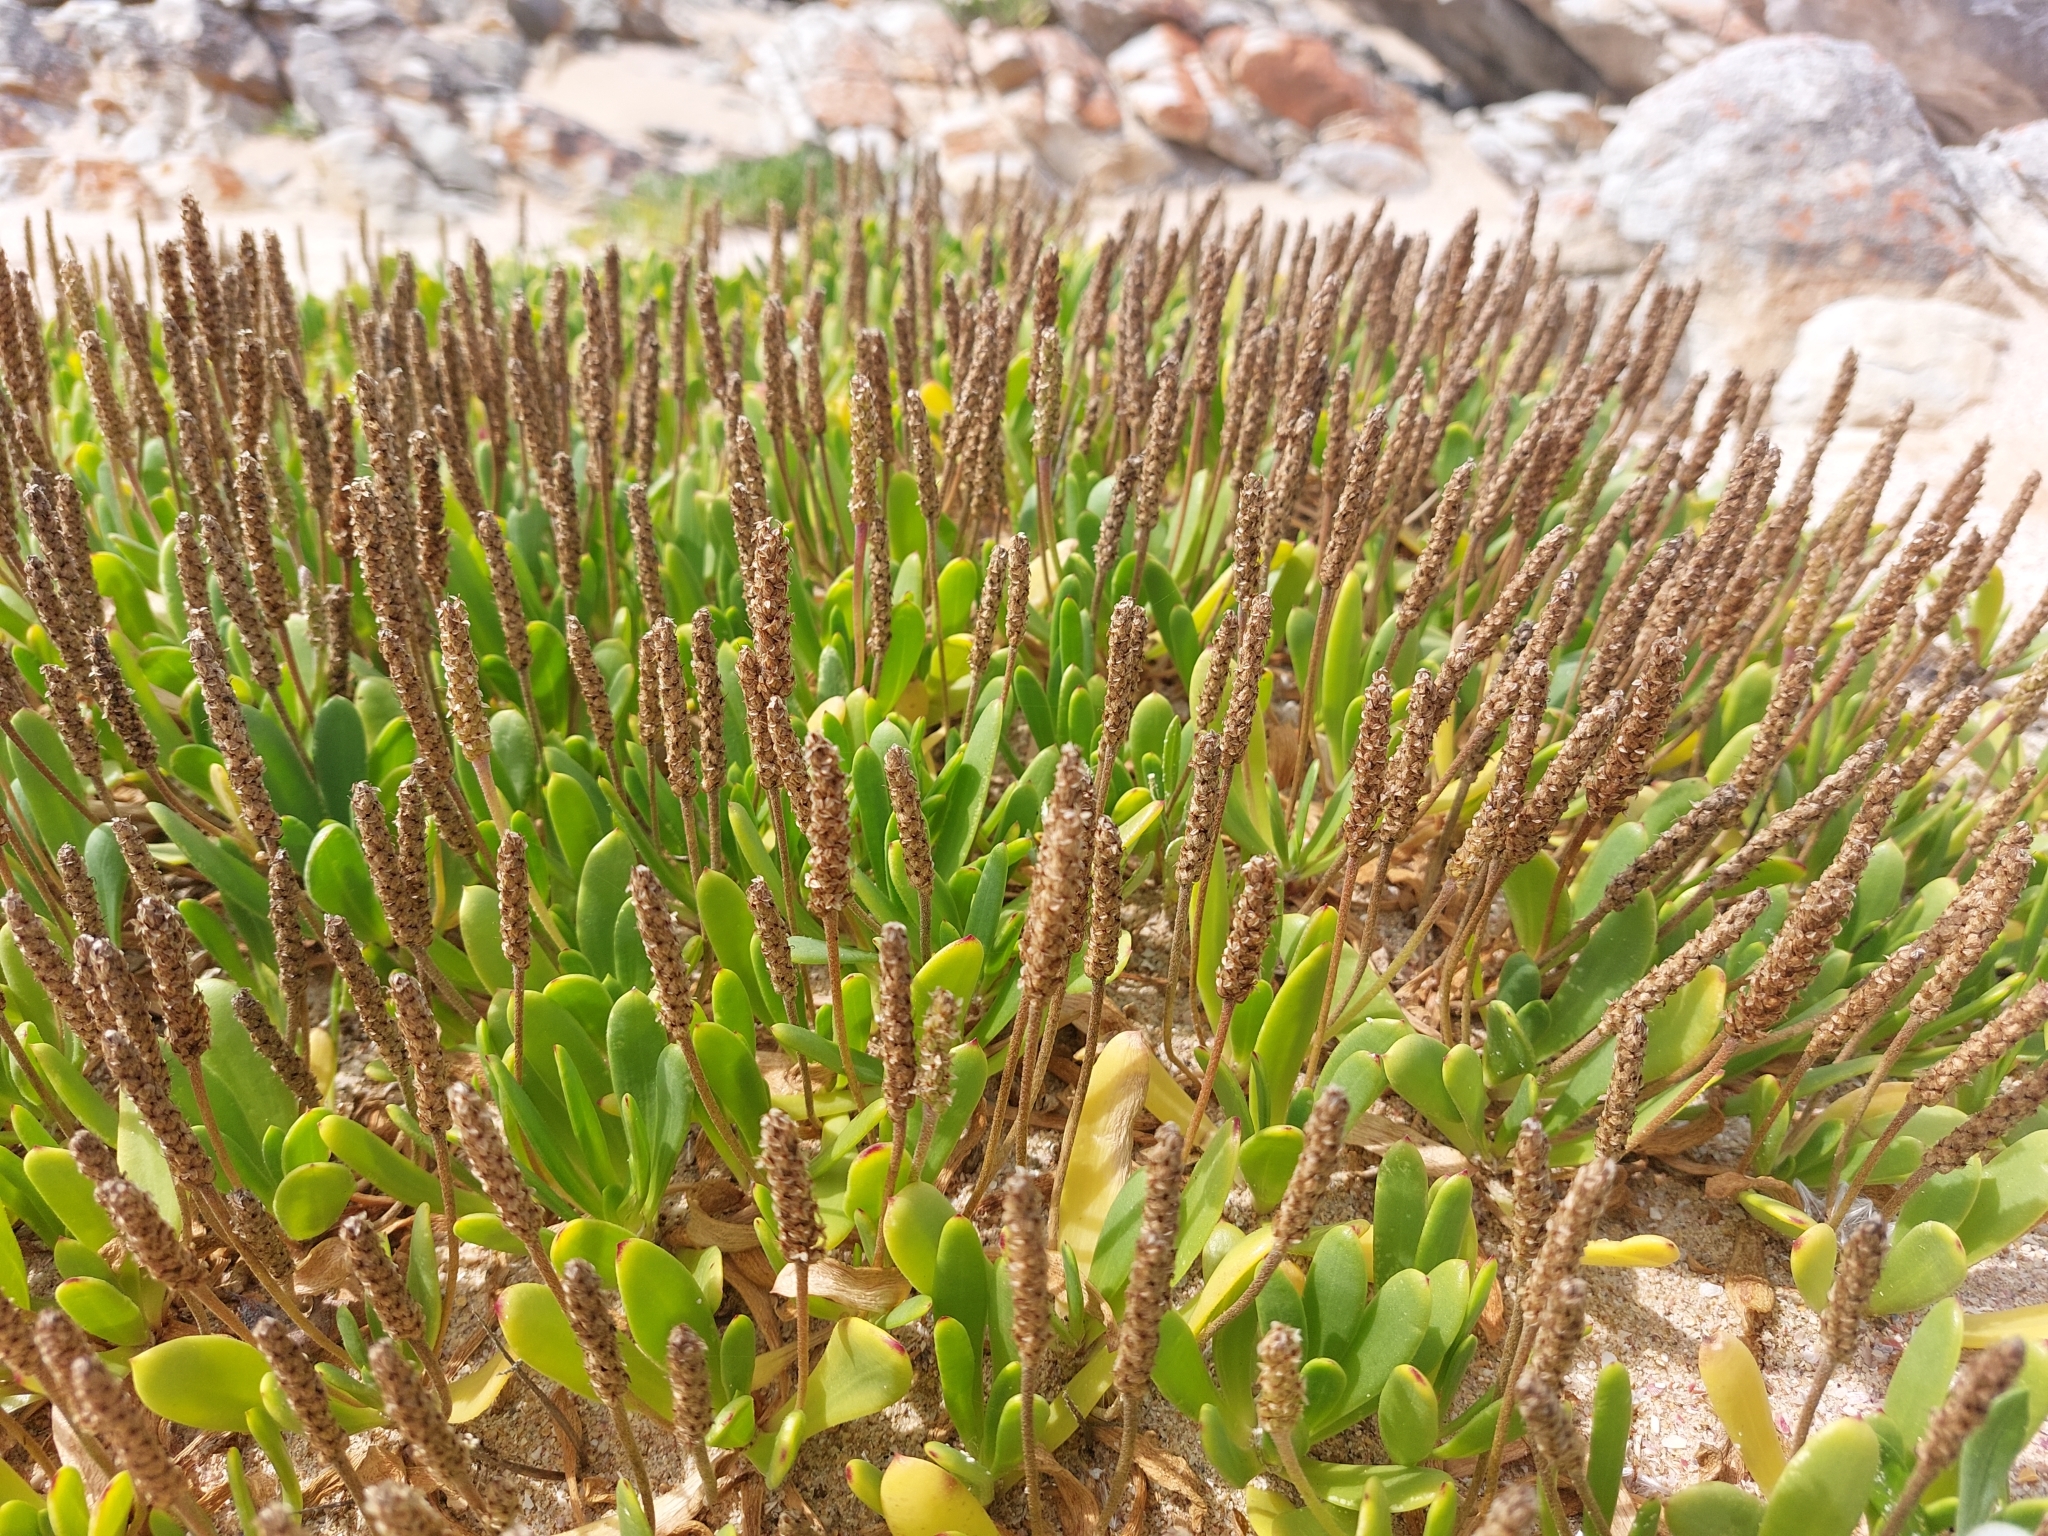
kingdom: Plantae
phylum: Tracheophyta
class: Magnoliopsida
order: Lamiales
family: Plantaginaceae
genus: Plantago
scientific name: Plantago carnosa
